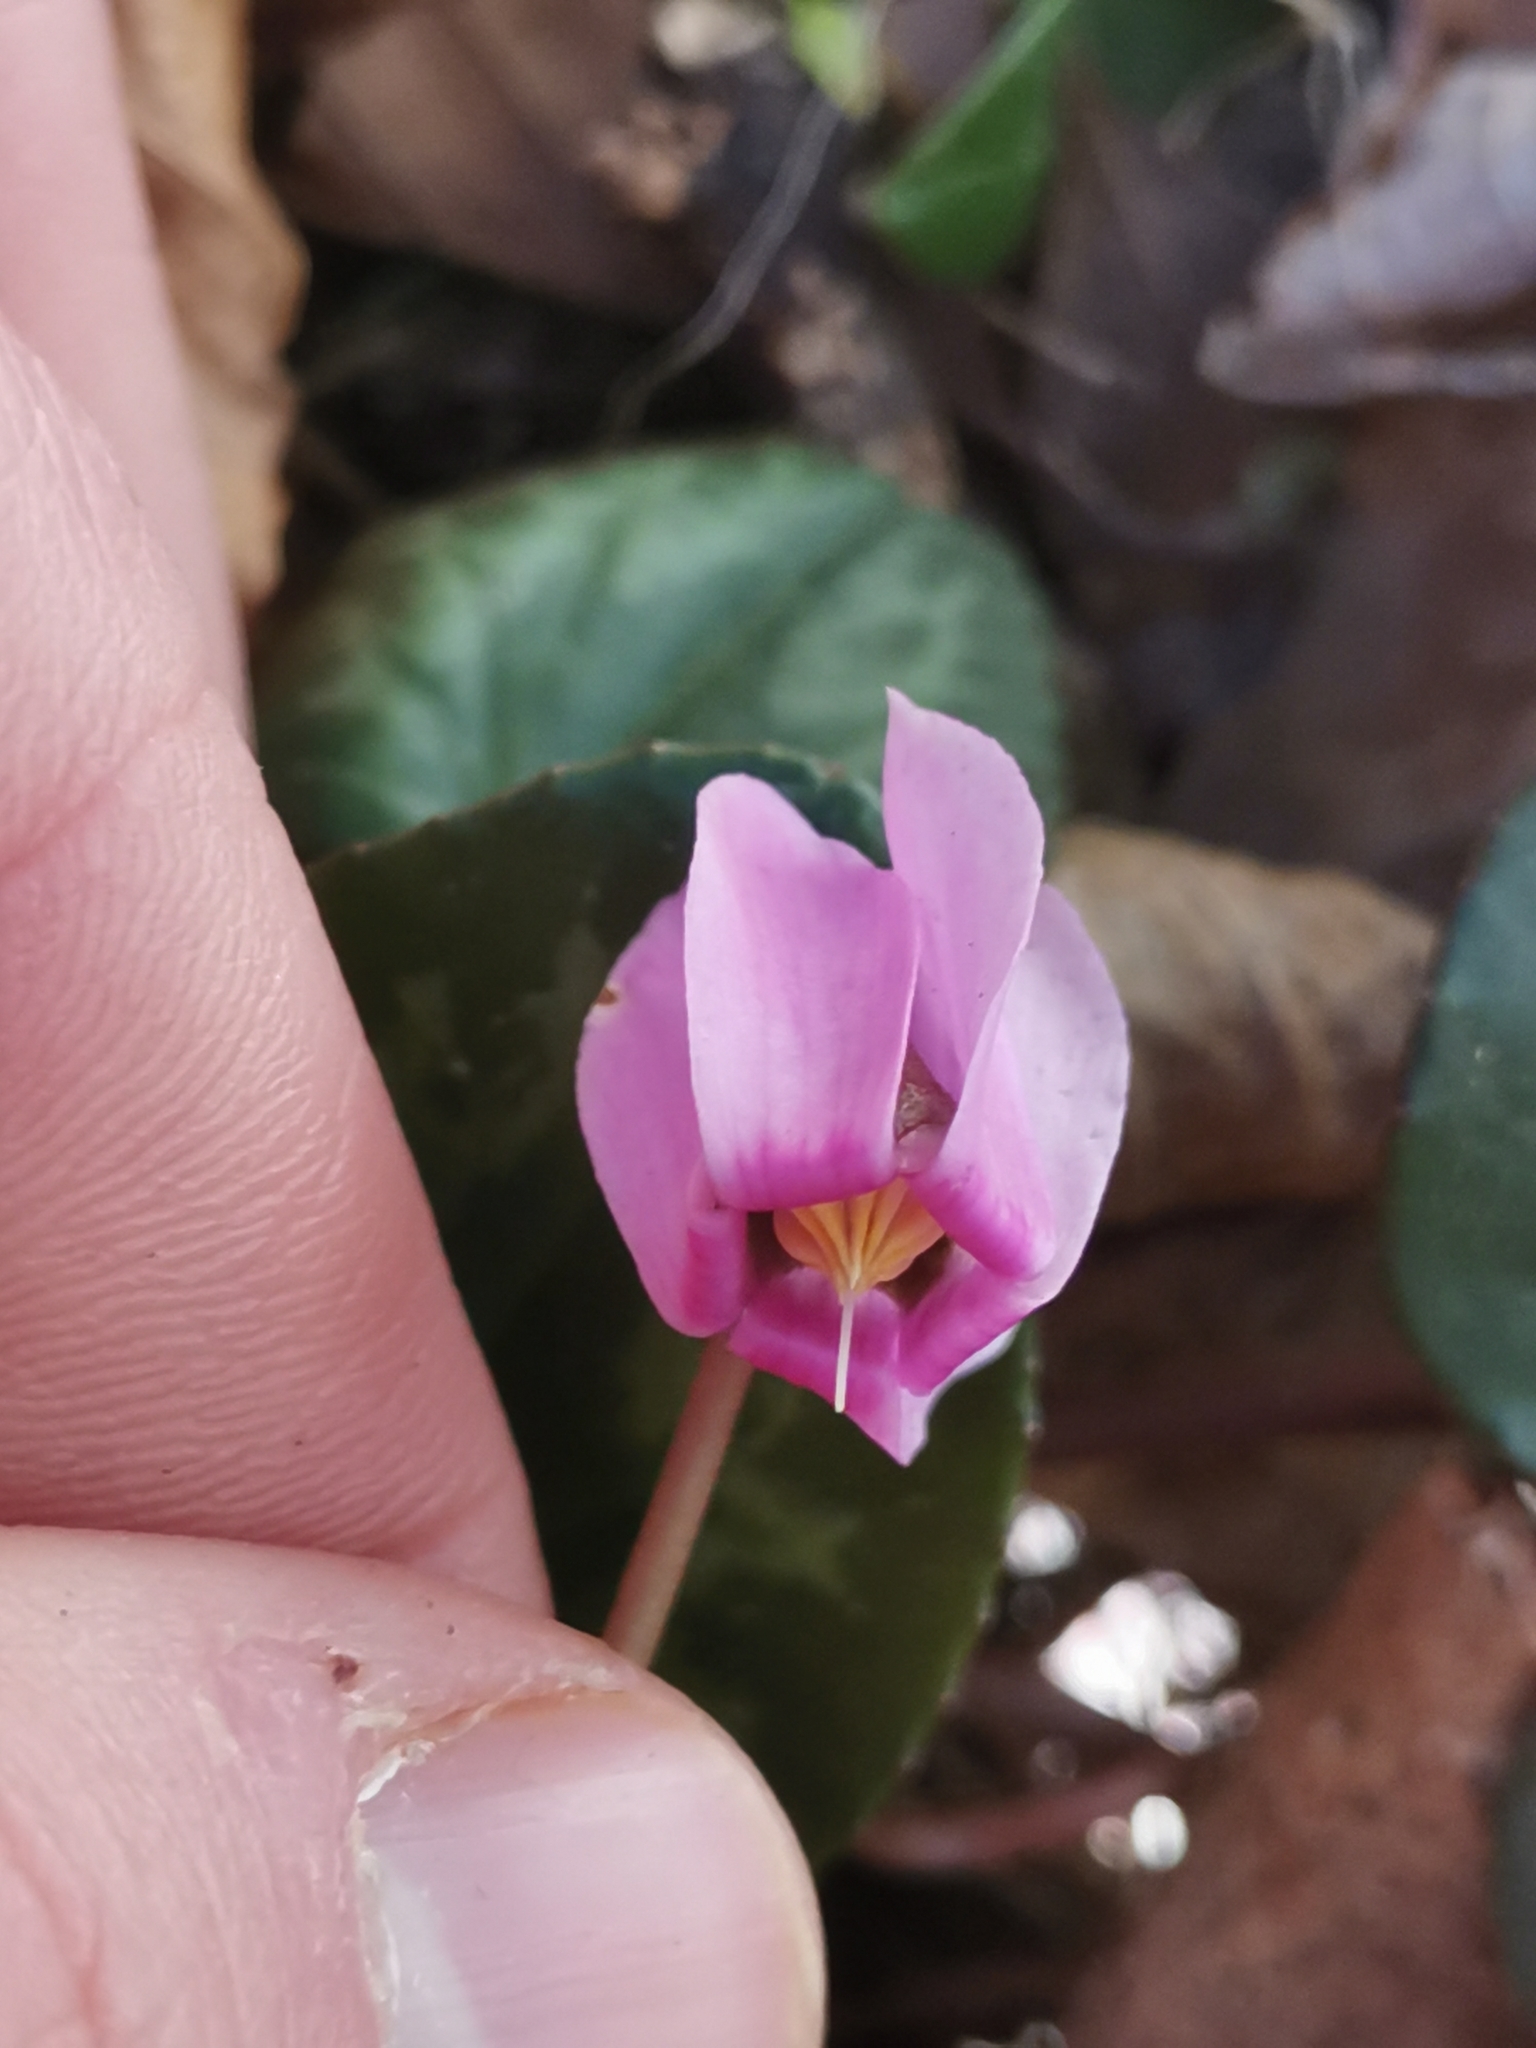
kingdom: Plantae
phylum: Tracheophyta
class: Magnoliopsida
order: Ericales
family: Primulaceae
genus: Cyclamen
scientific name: Cyclamen purpurascens
